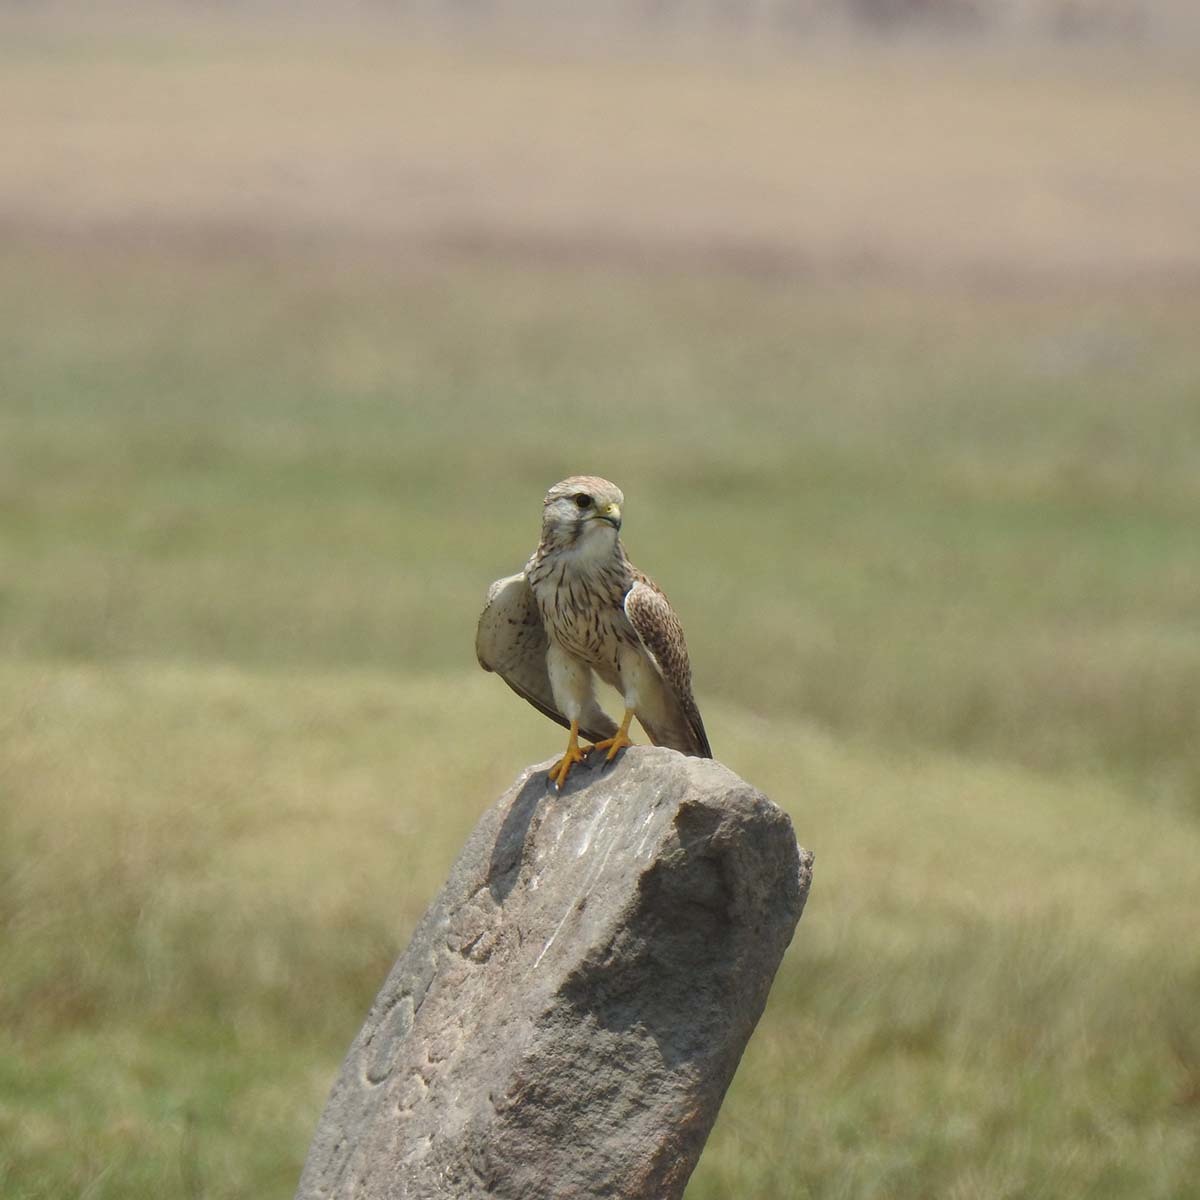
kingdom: Animalia
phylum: Chordata
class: Aves
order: Falconiformes
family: Falconidae
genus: Falco
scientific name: Falco tinnunculus
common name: Common kestrel
